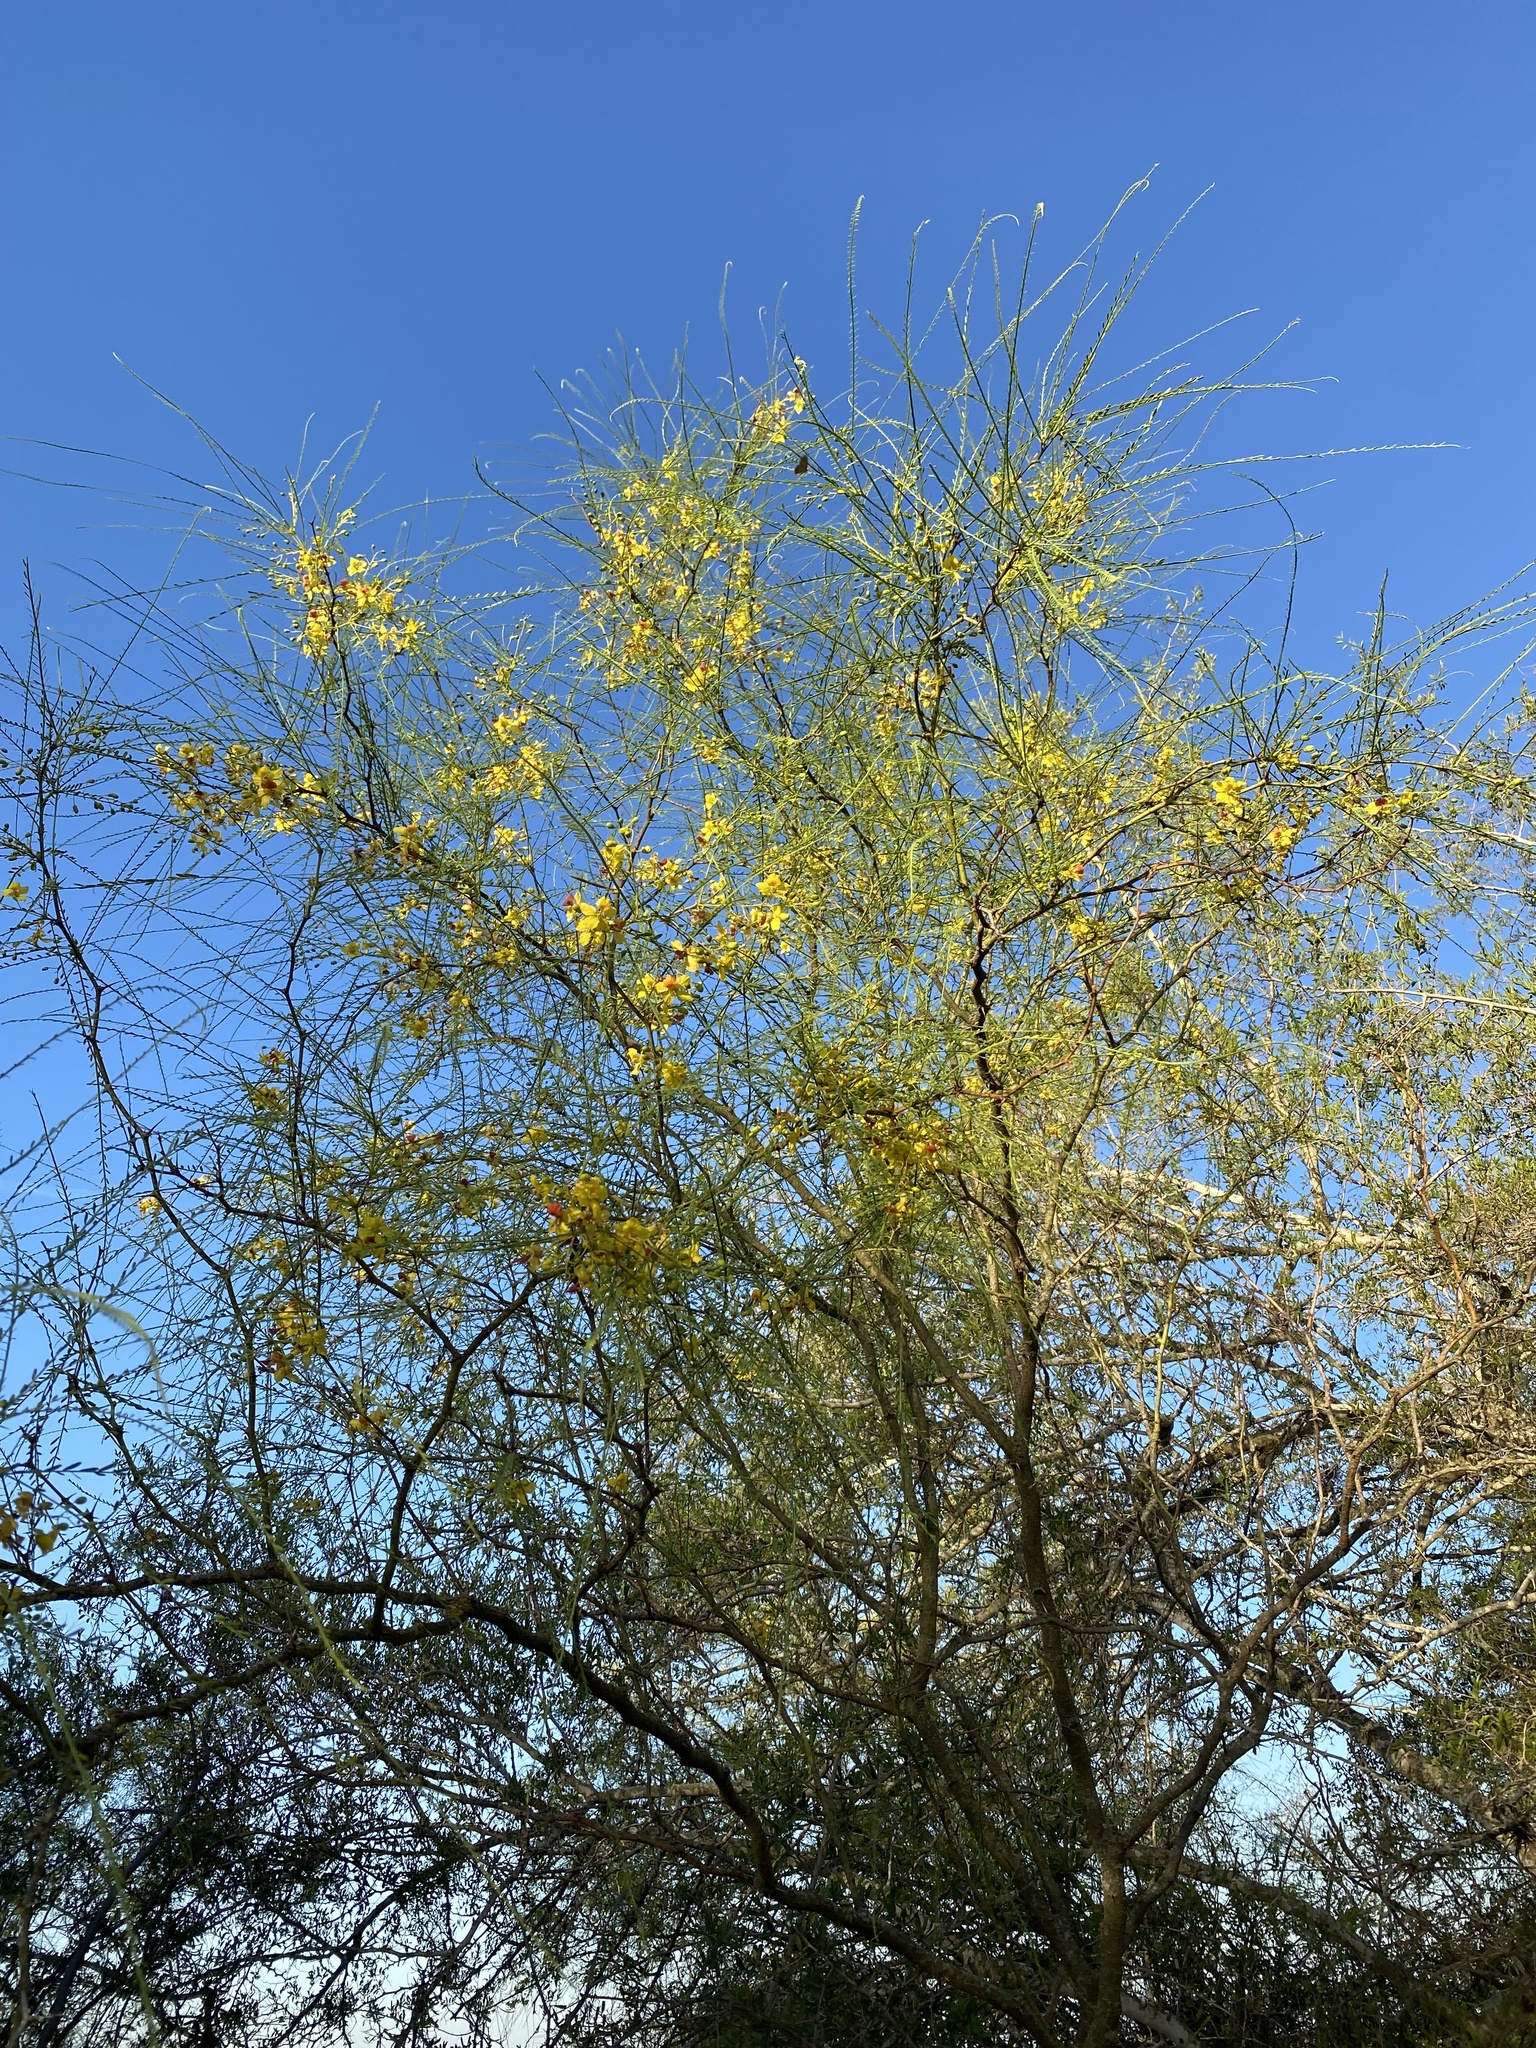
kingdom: Plantae
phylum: Tracheophyta
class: Magnoliopsida
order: Fabales
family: Fabaceae
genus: Parkinsonia
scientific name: Parkinsonia aculeata
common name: Jerusalem thorn
